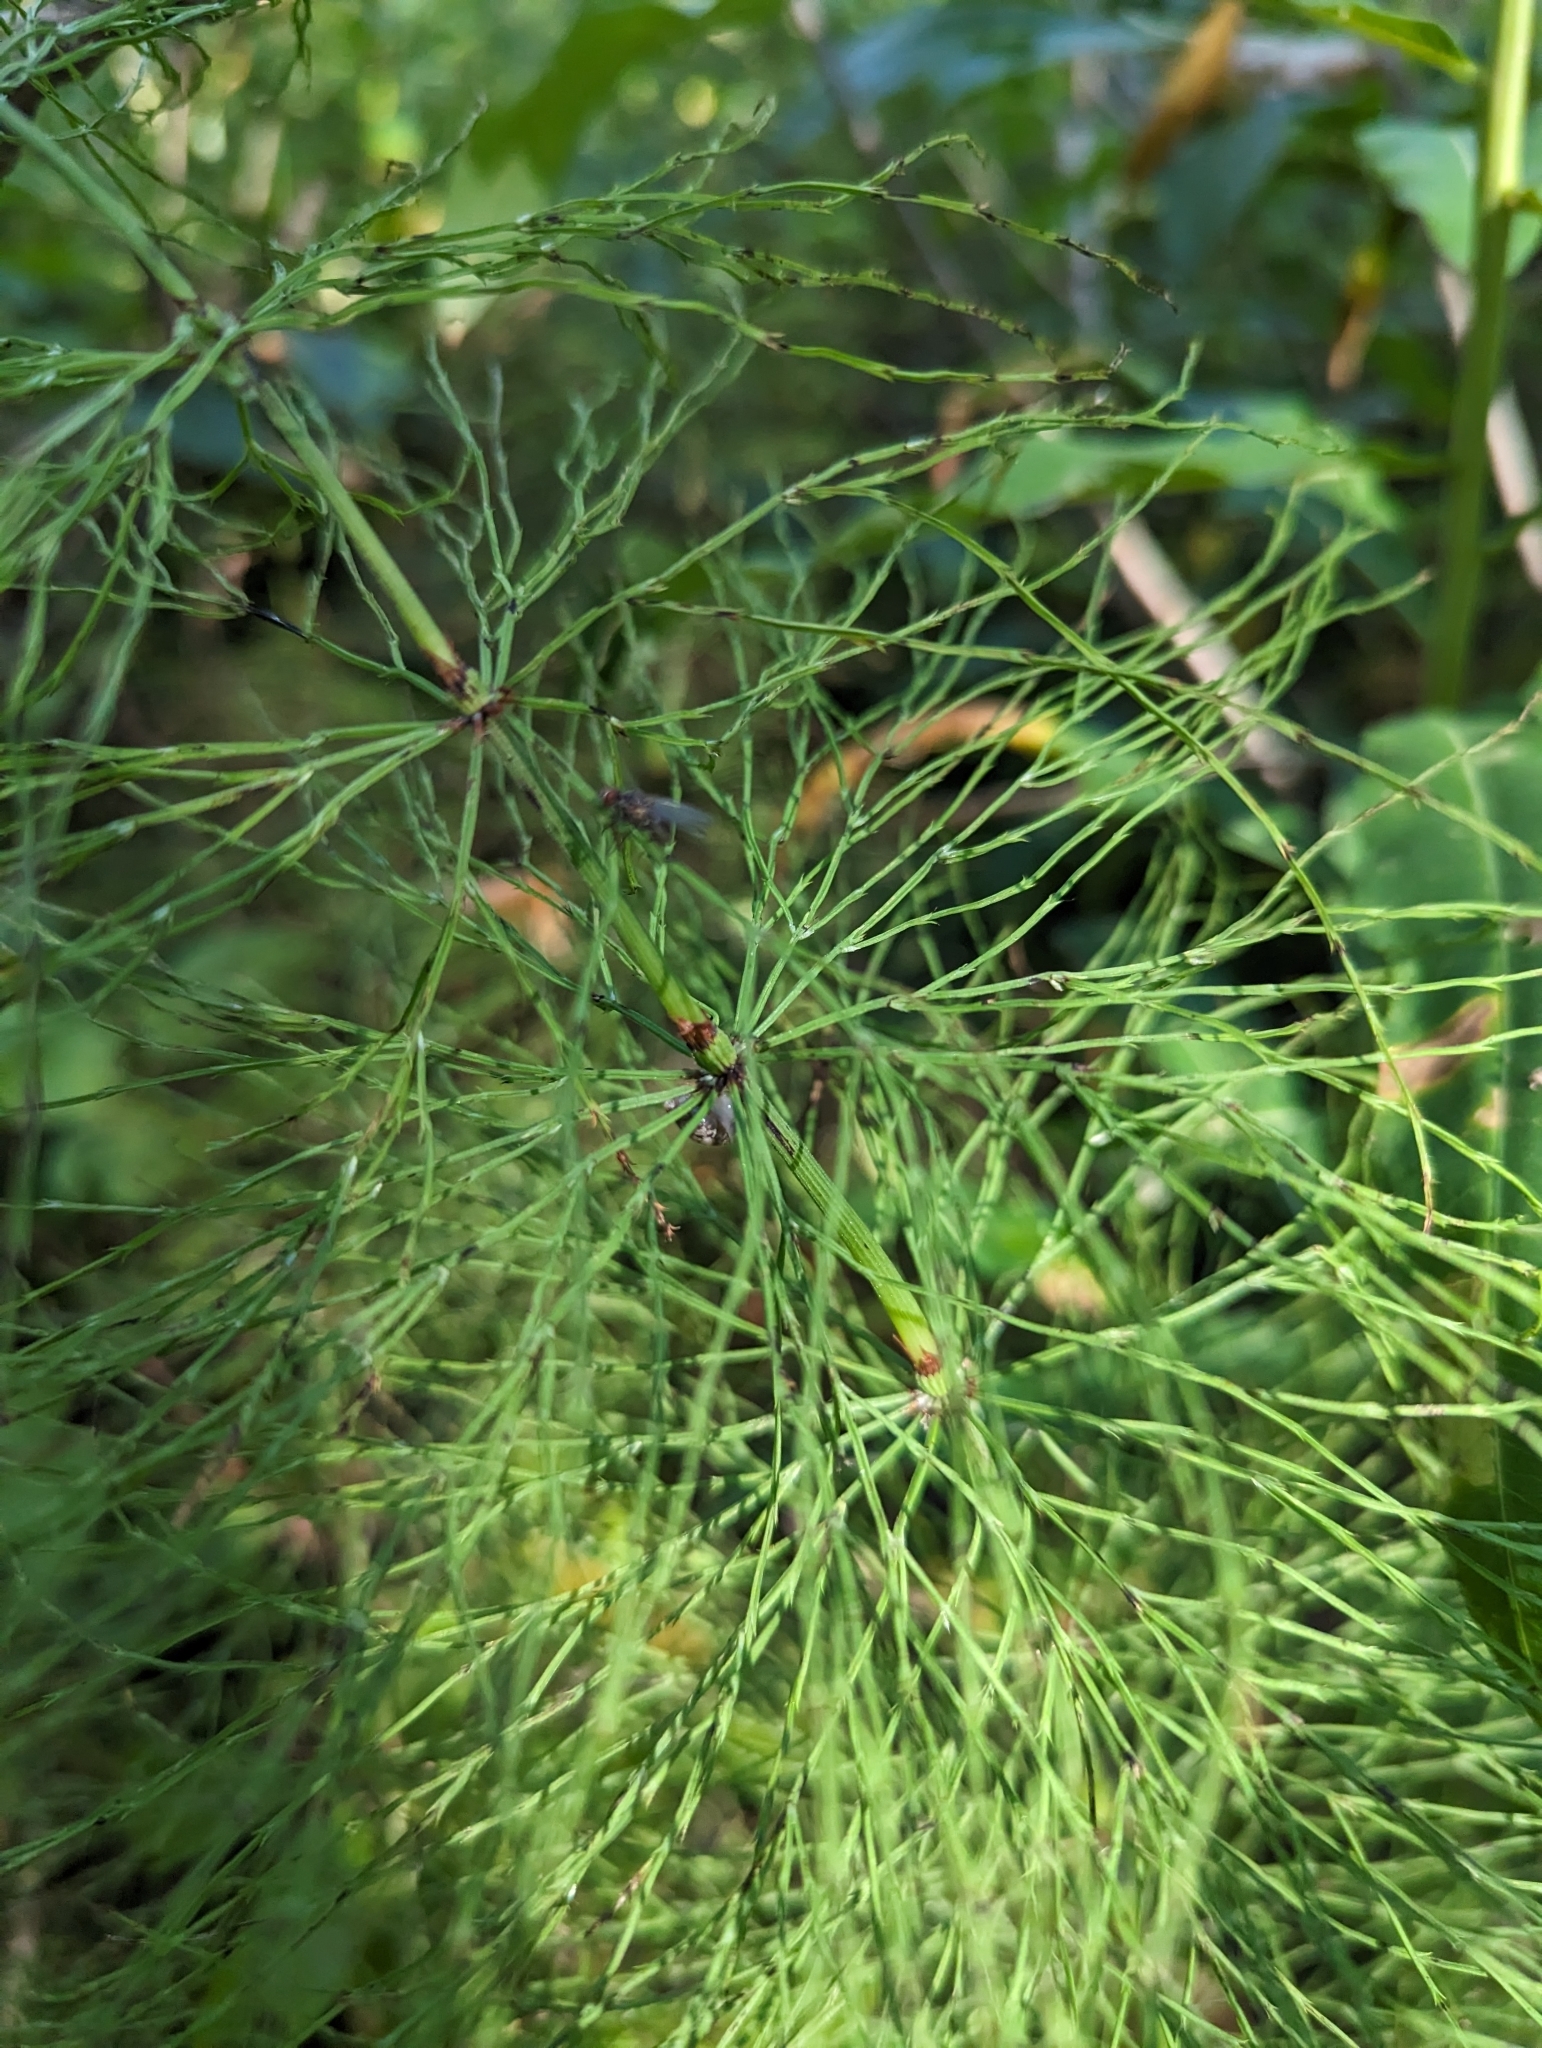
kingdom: Plantae
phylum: Tracheophyta
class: Polypodiopsida
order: Equisetales
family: Equisetaceae
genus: Equisetum
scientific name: Equisetum sylvaticum
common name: Wood horsetail
